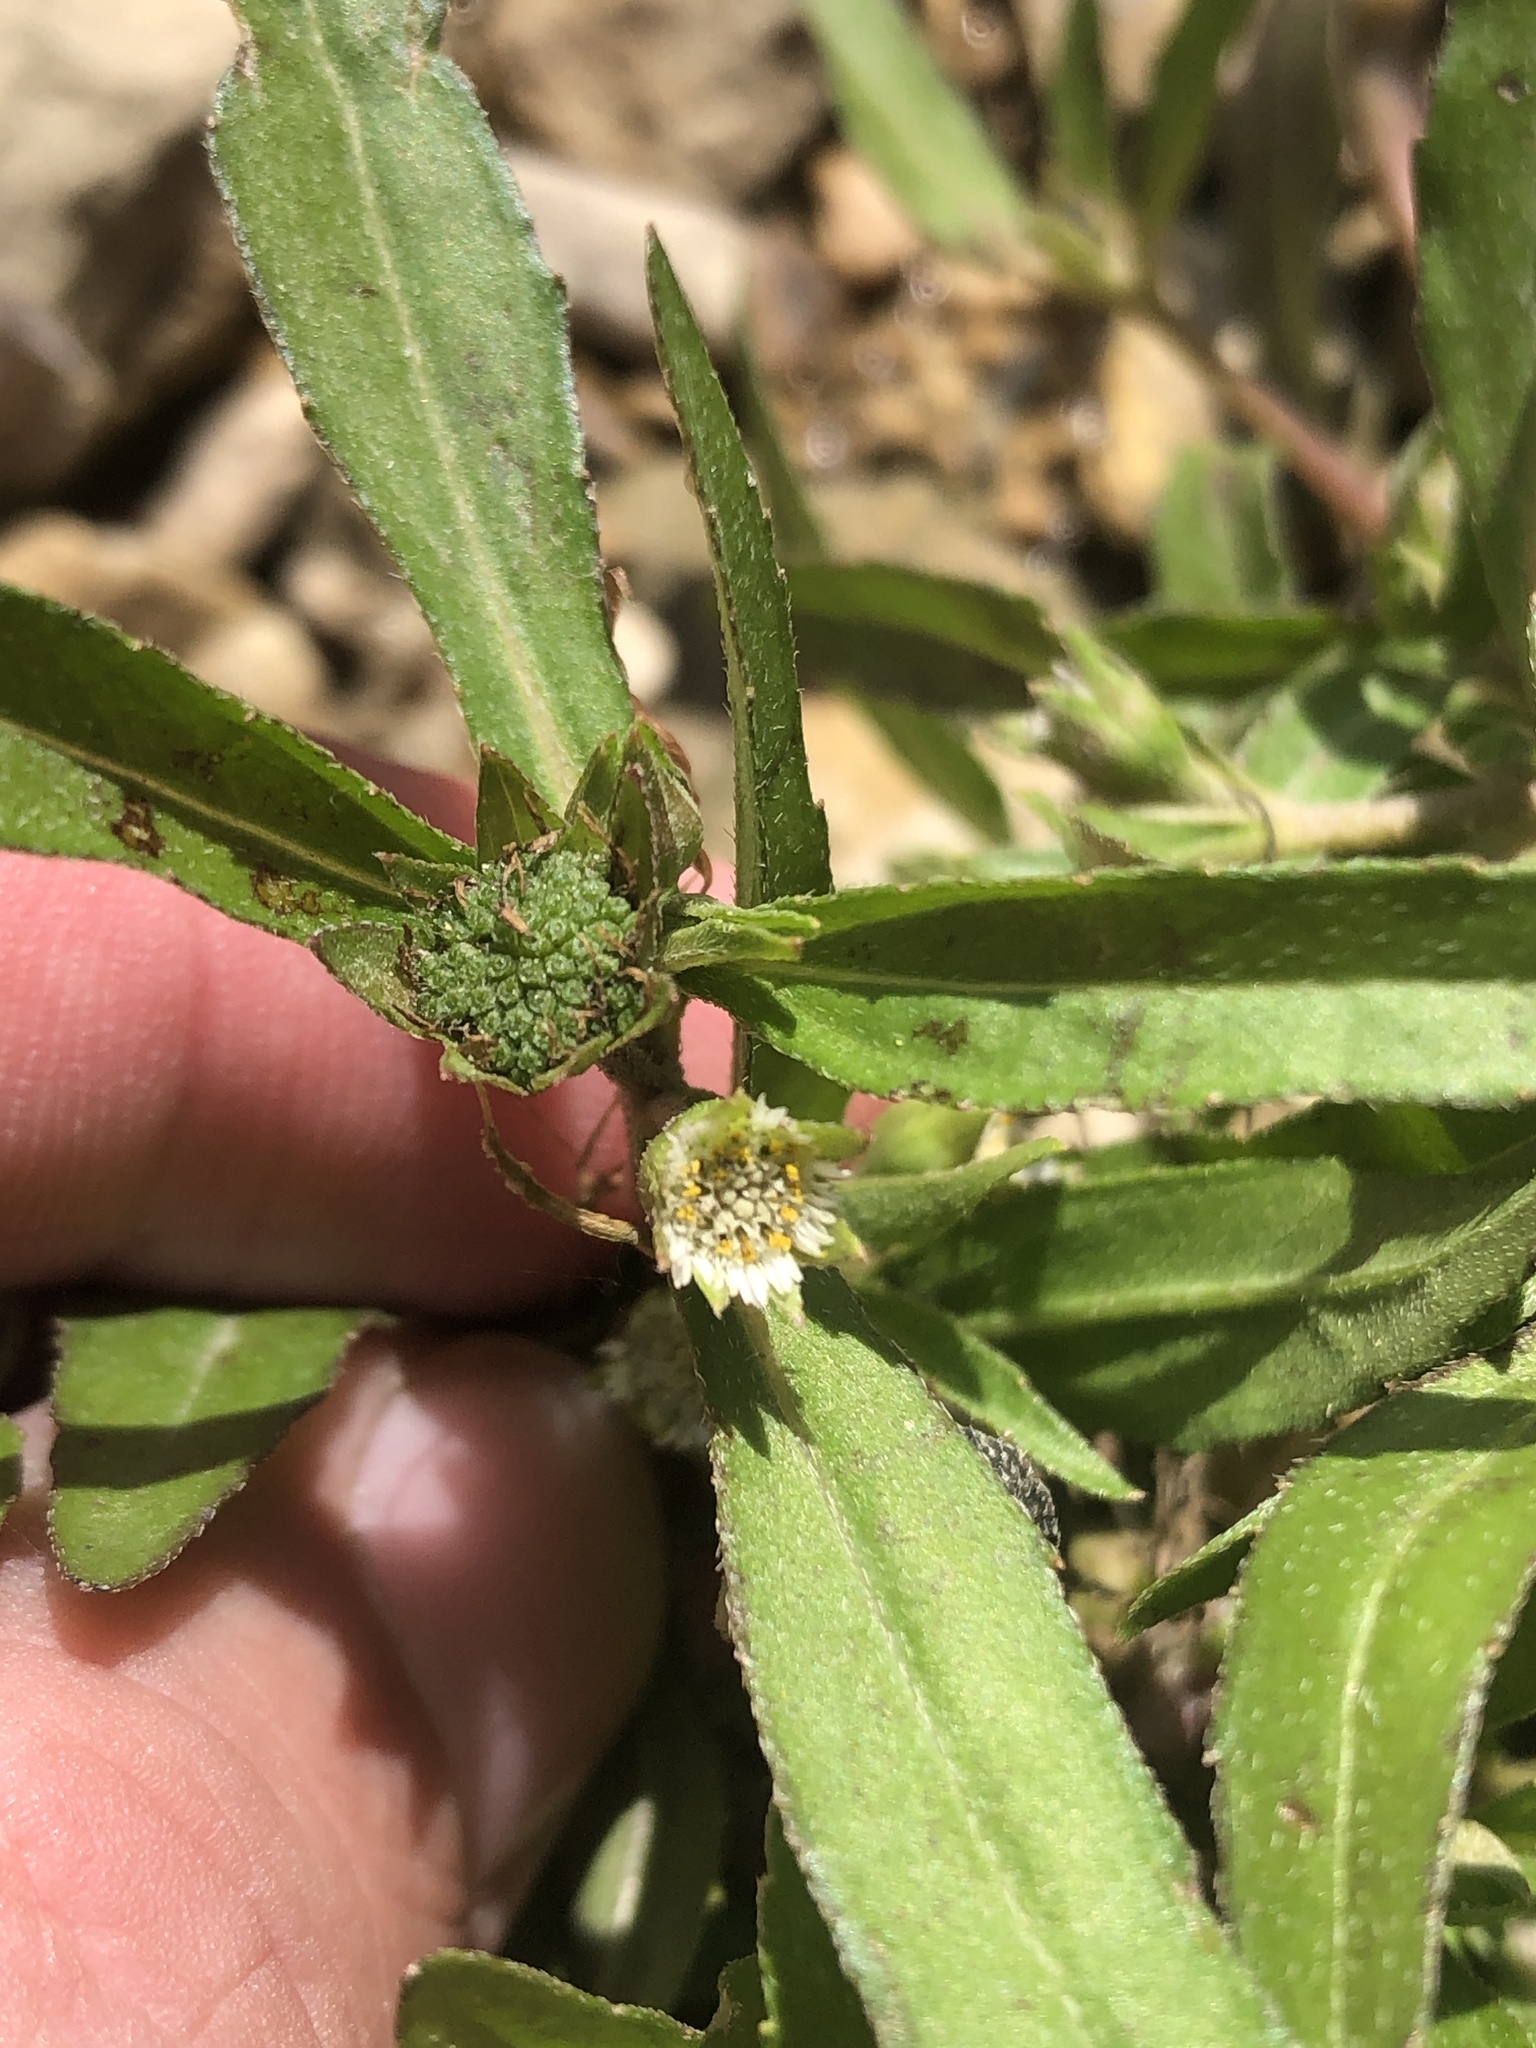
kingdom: Plantae
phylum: Tracheophyta
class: Magnoliopsida
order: Asterales
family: Asteraceae
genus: Eclipta
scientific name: Eclipta prostrata
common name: False daisy
